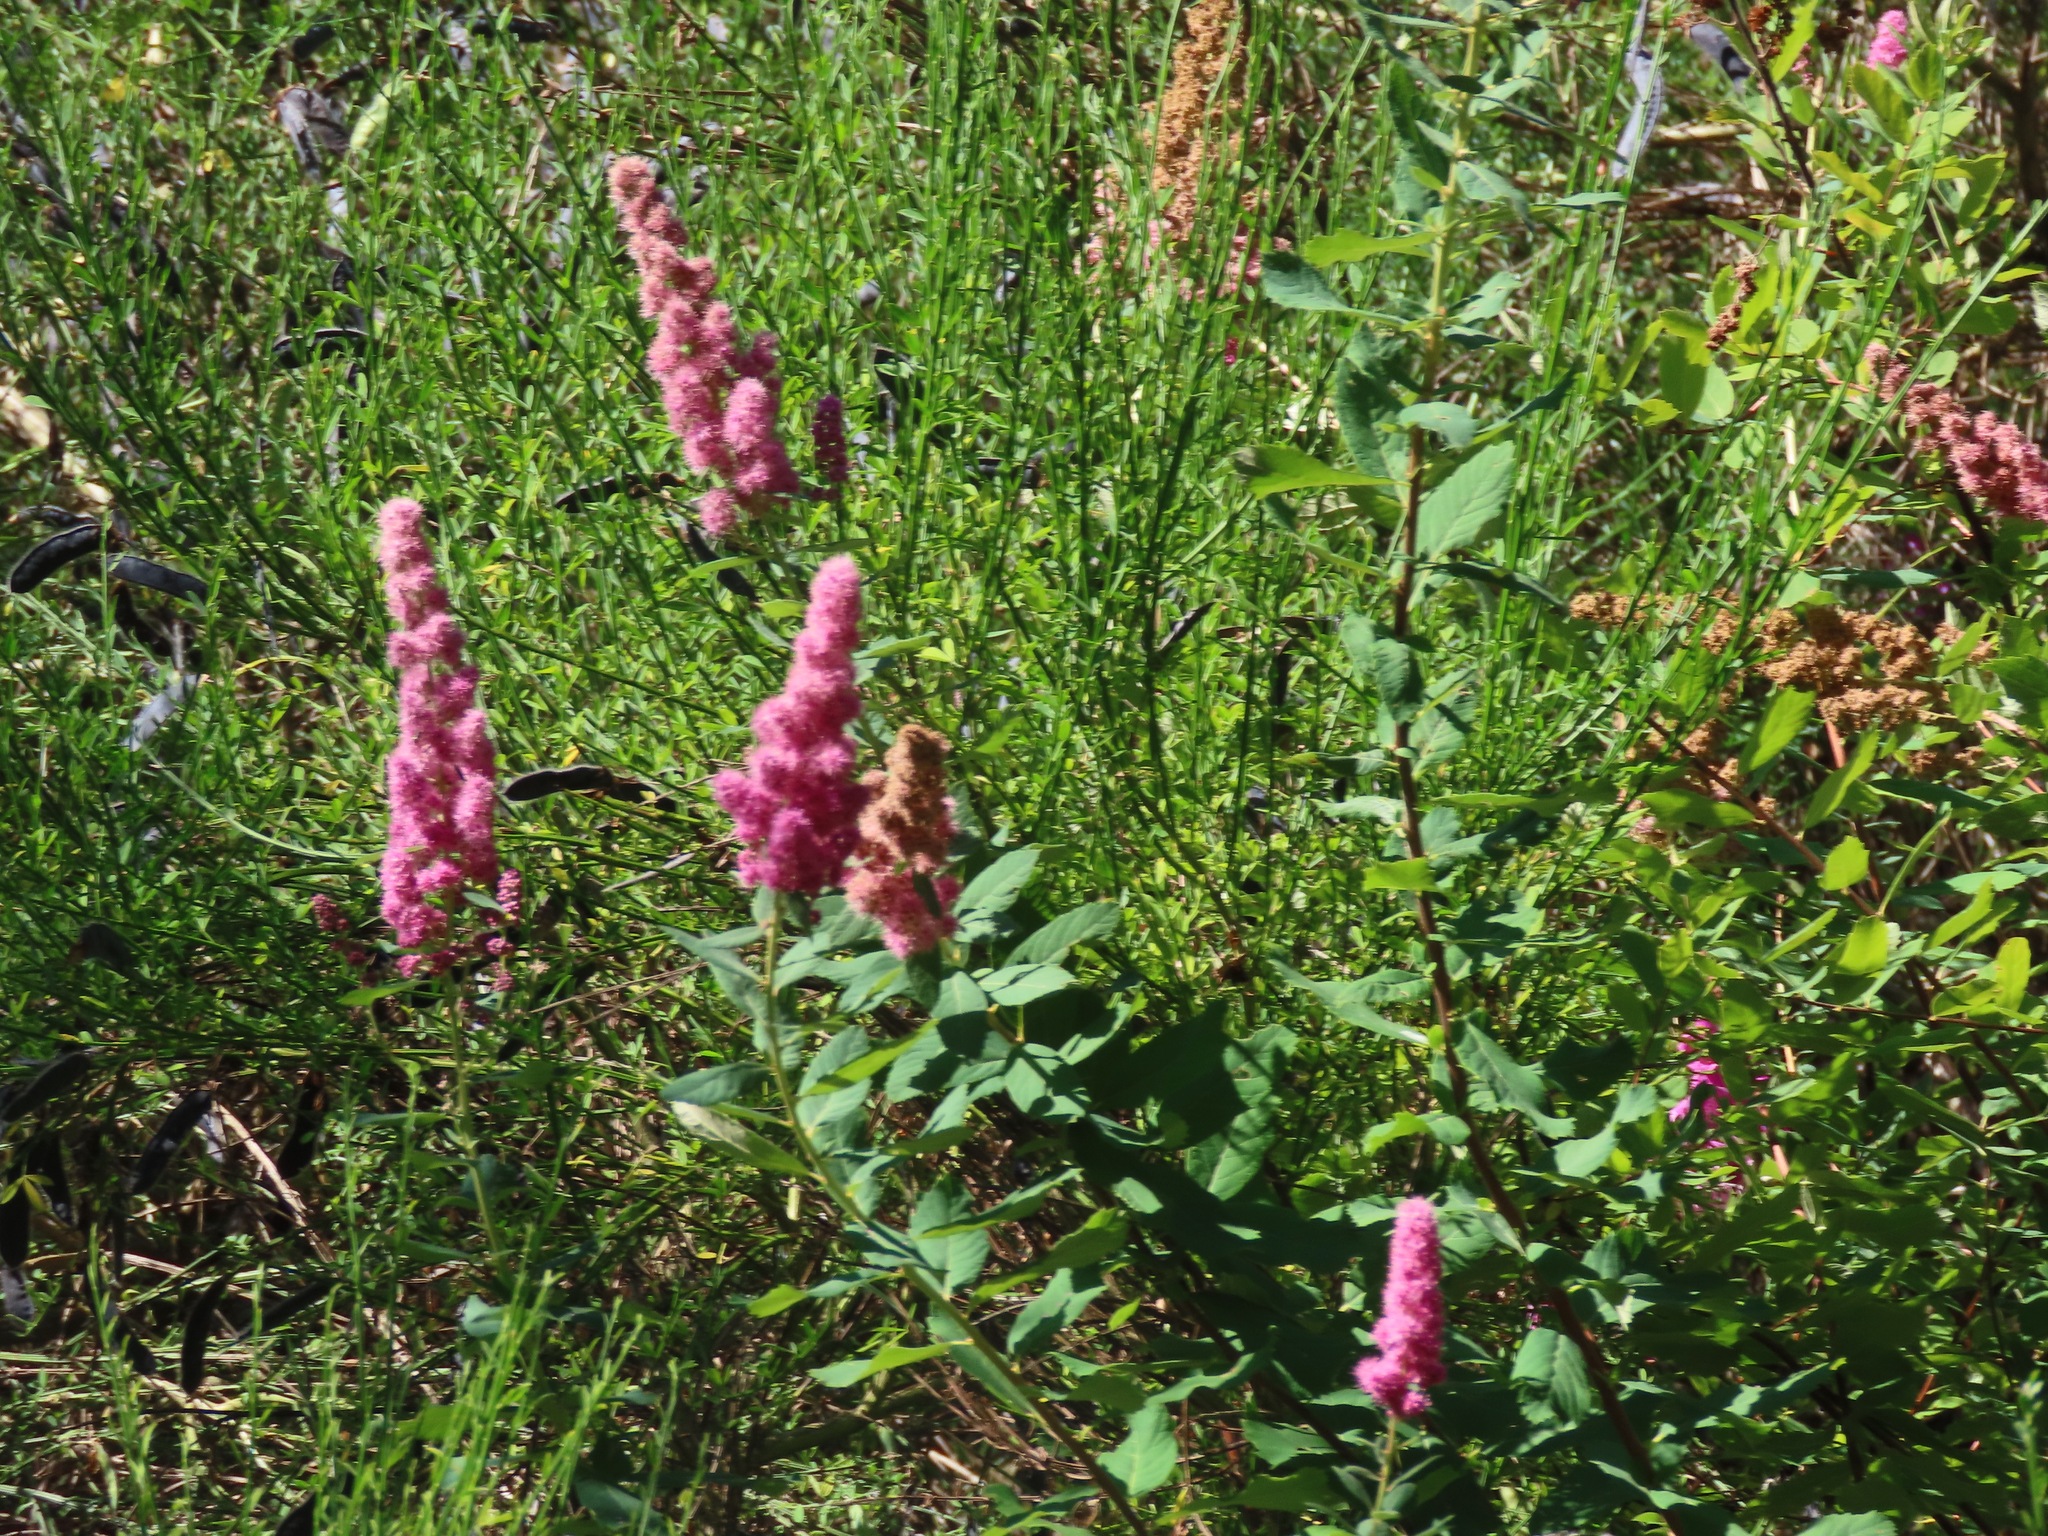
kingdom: Plantae
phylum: Tracheophyta
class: Magnoliopsida
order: Rosales
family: Rosaceae
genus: Spiraea
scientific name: Spiraea douglasii
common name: Steeplebush
